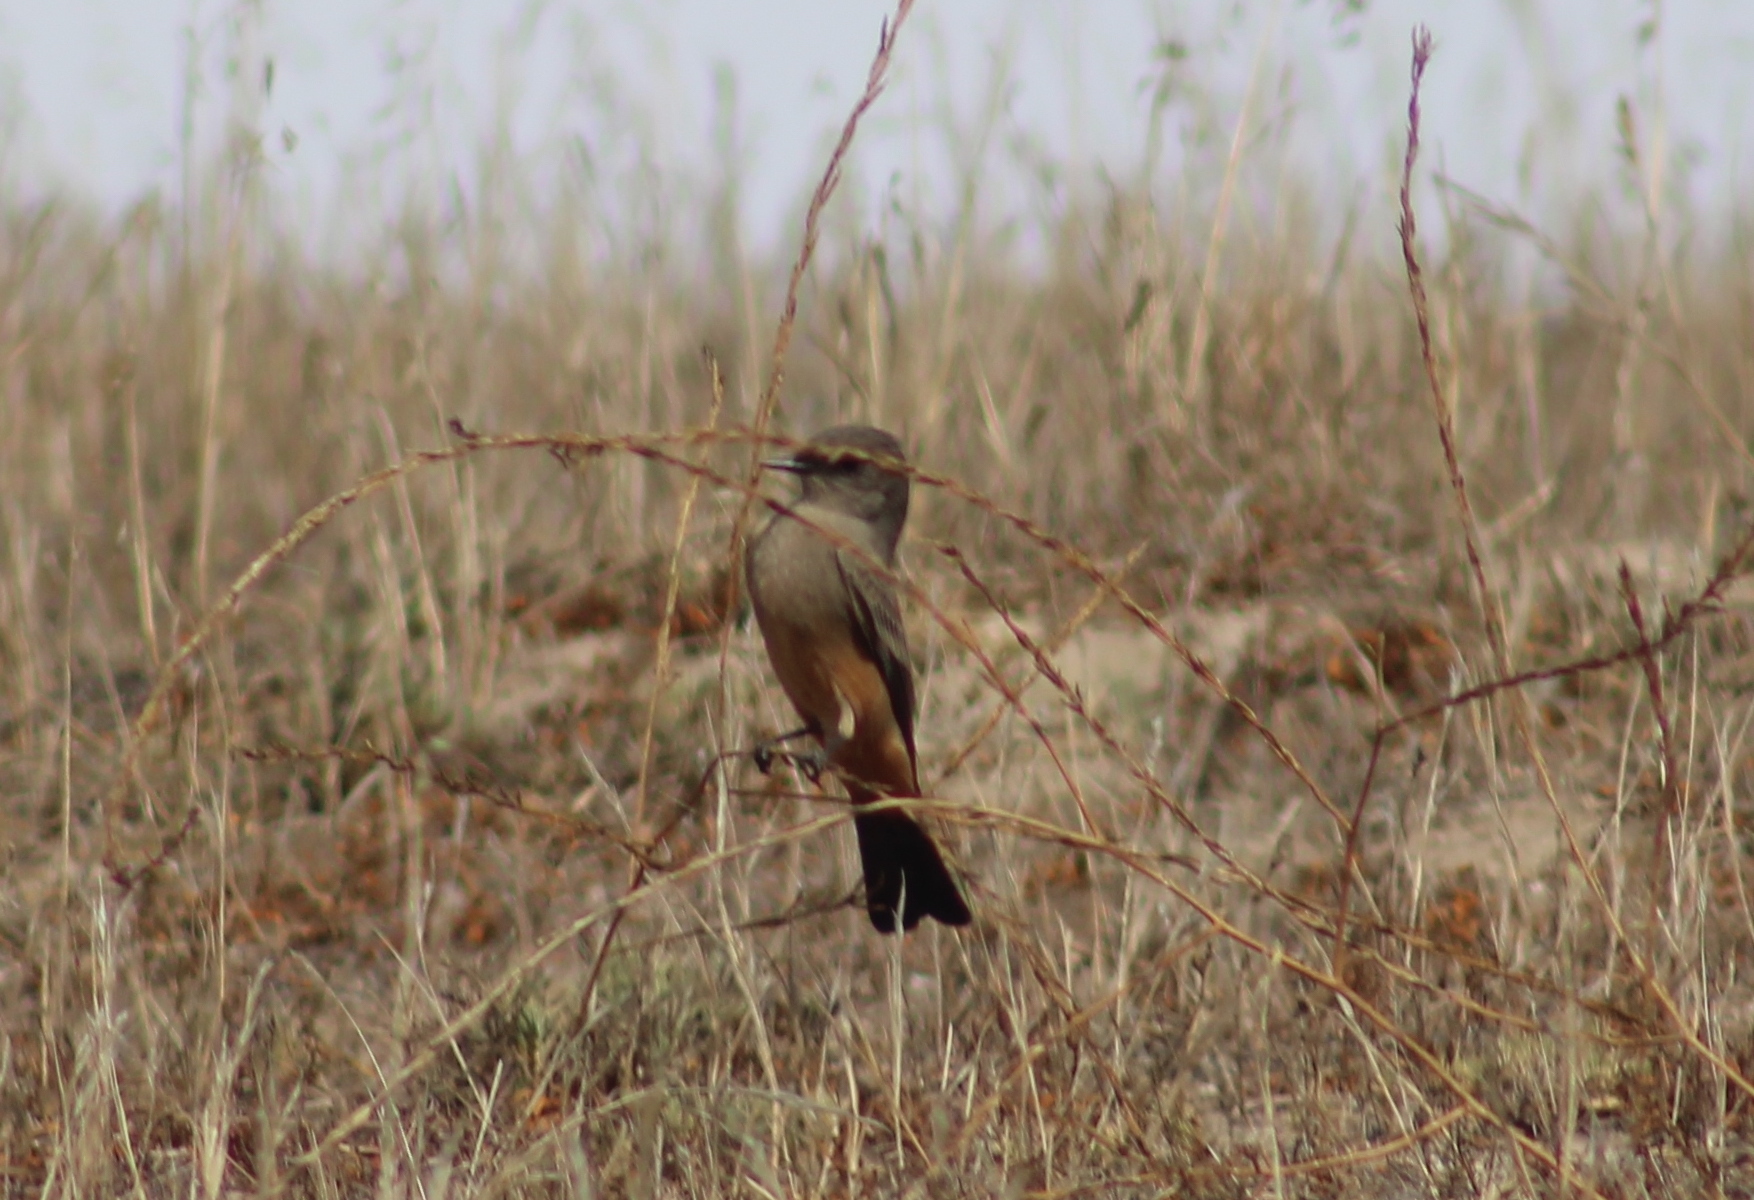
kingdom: Animalia
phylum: Chordata
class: Aves
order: Passeriformes
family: Tyrannidae
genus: Sayornis
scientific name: Sayornis saya
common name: Say's phoebe
